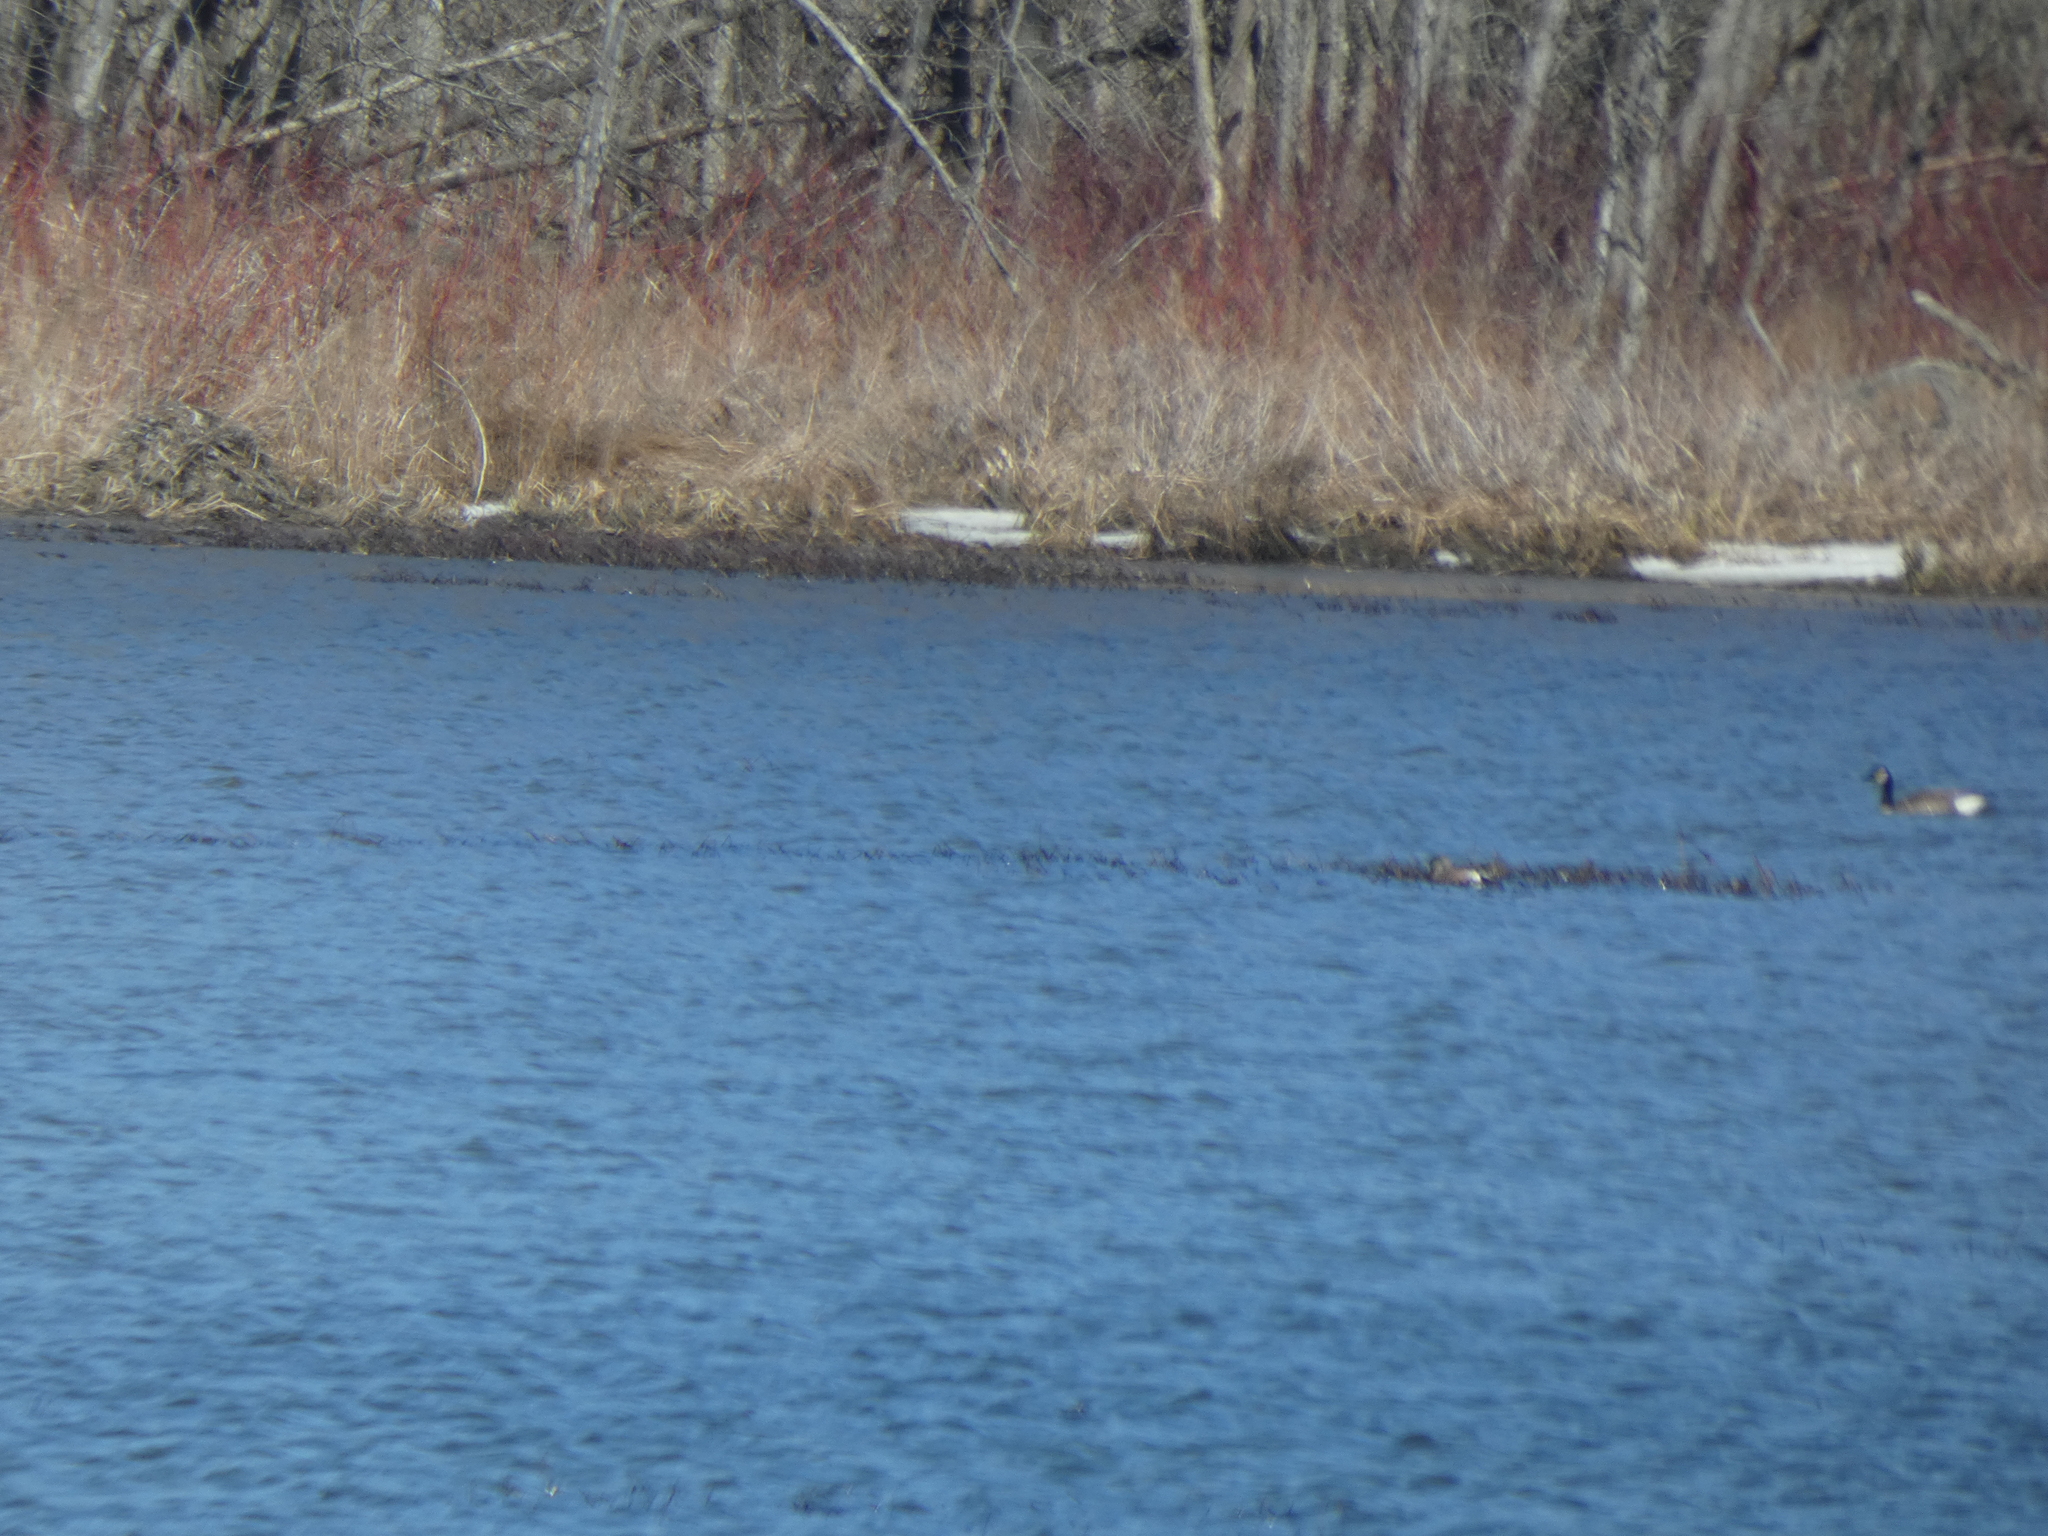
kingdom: Animalia
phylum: Chordata
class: Aves
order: Anseriformes
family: Anatidae
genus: Mareca
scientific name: Mareca americana
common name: American wigeon
